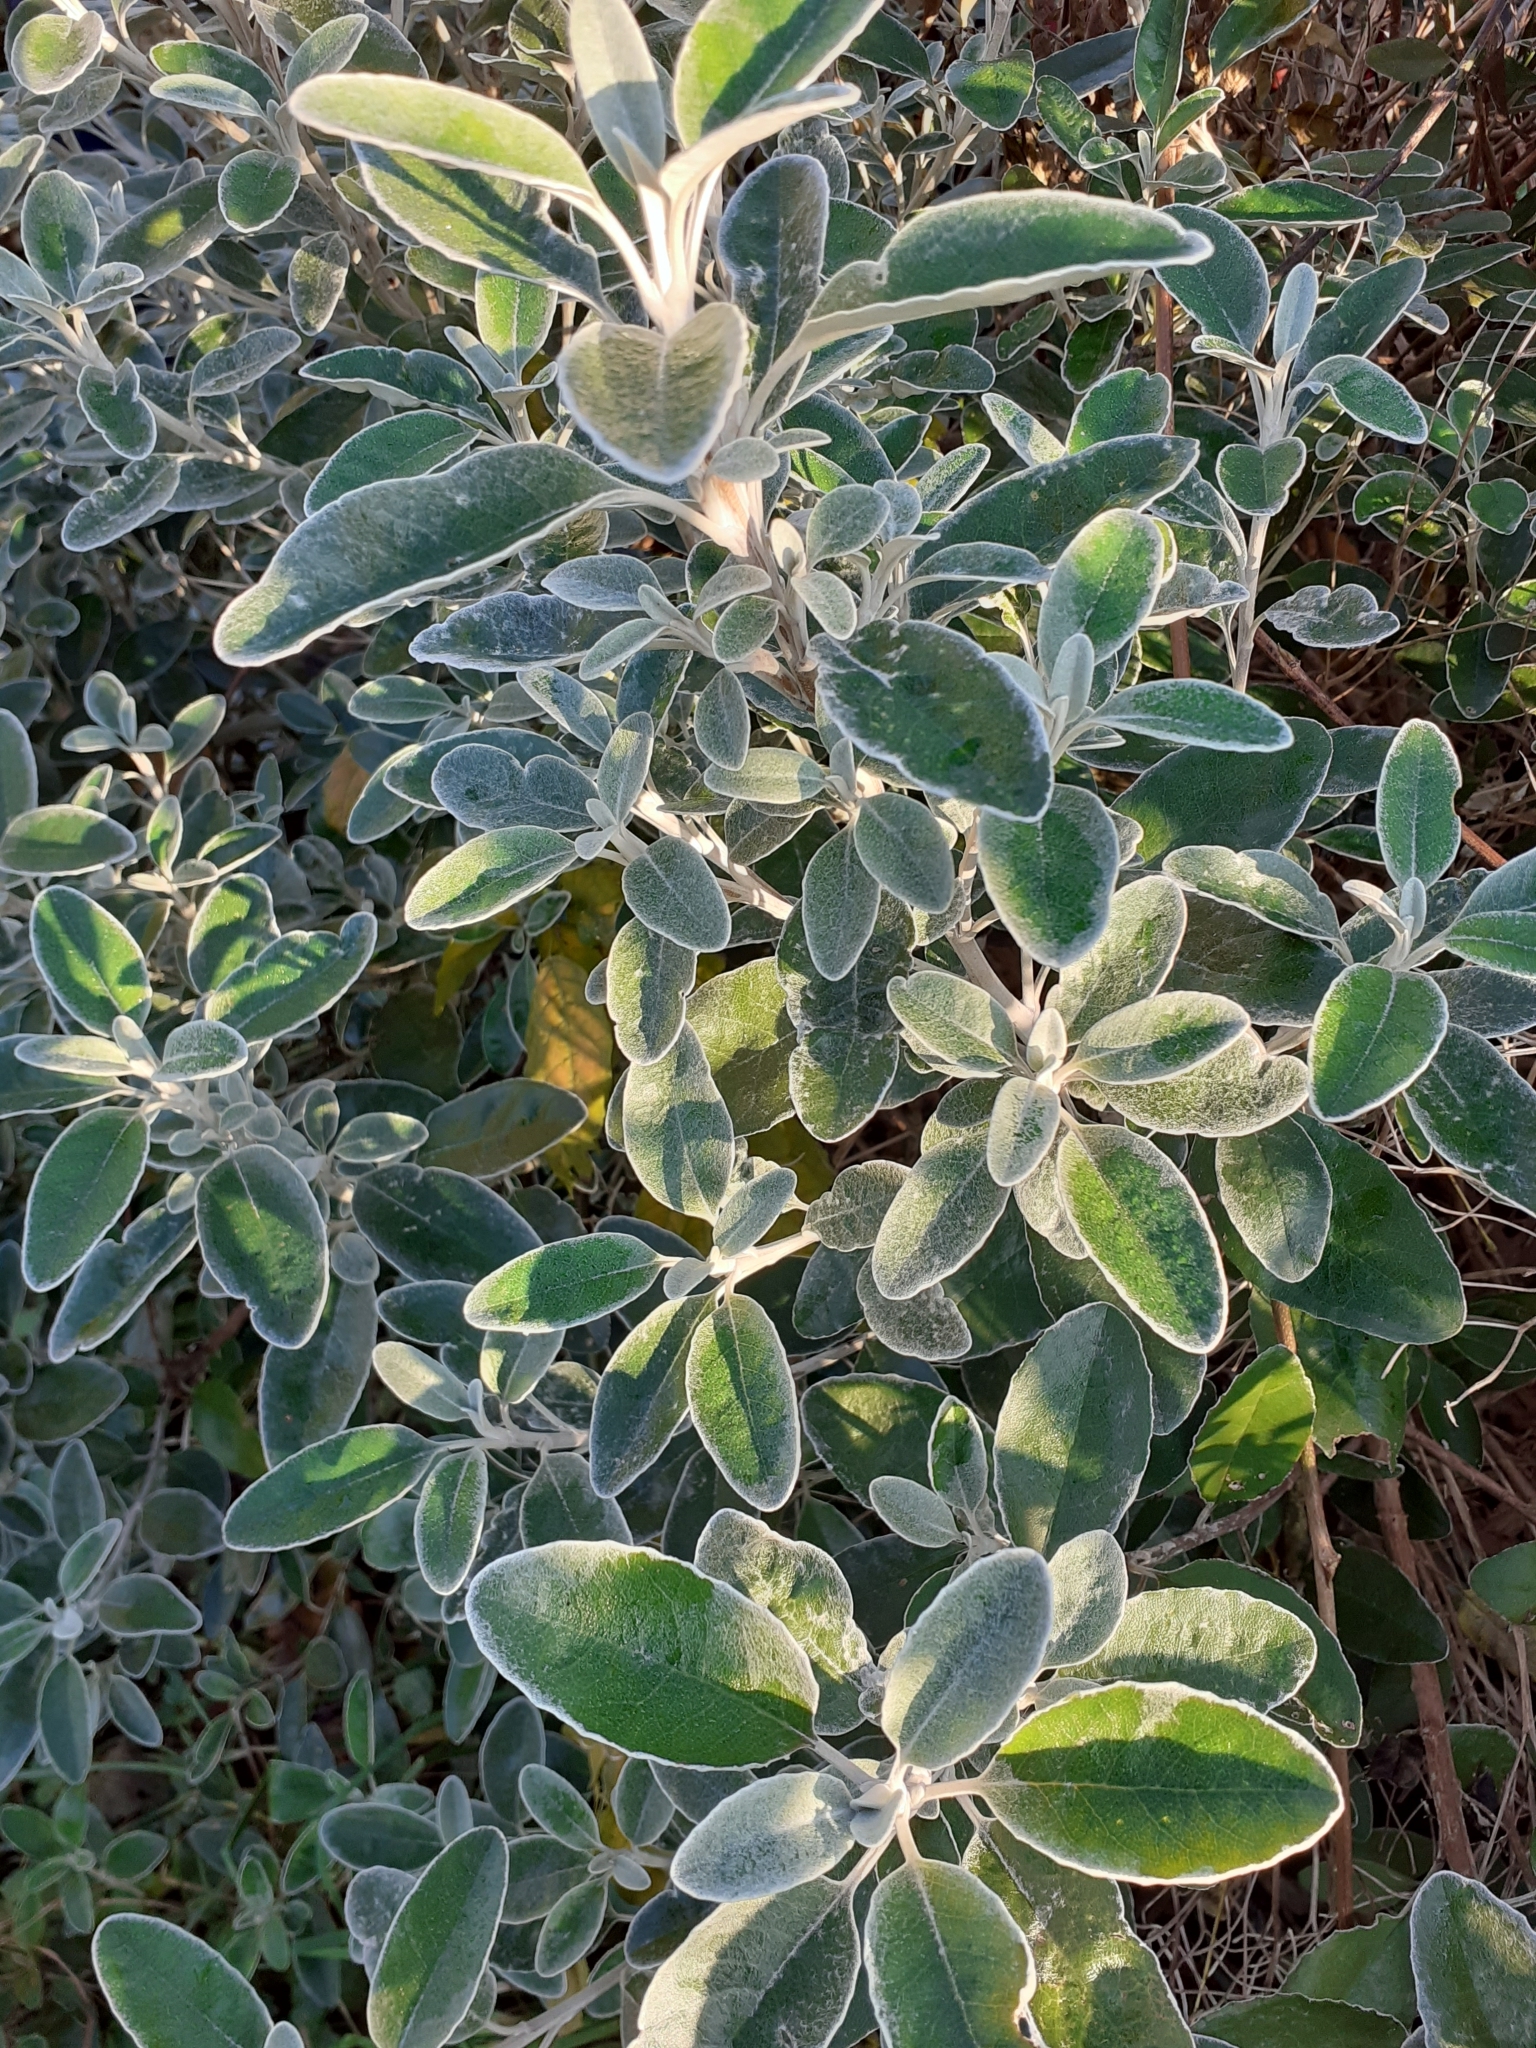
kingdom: Plantae
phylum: Tracheophyta
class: Magnoliopsida
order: Asterales
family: Asteraceae
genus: Brachyglottis
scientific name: Brachyglottis jubar
